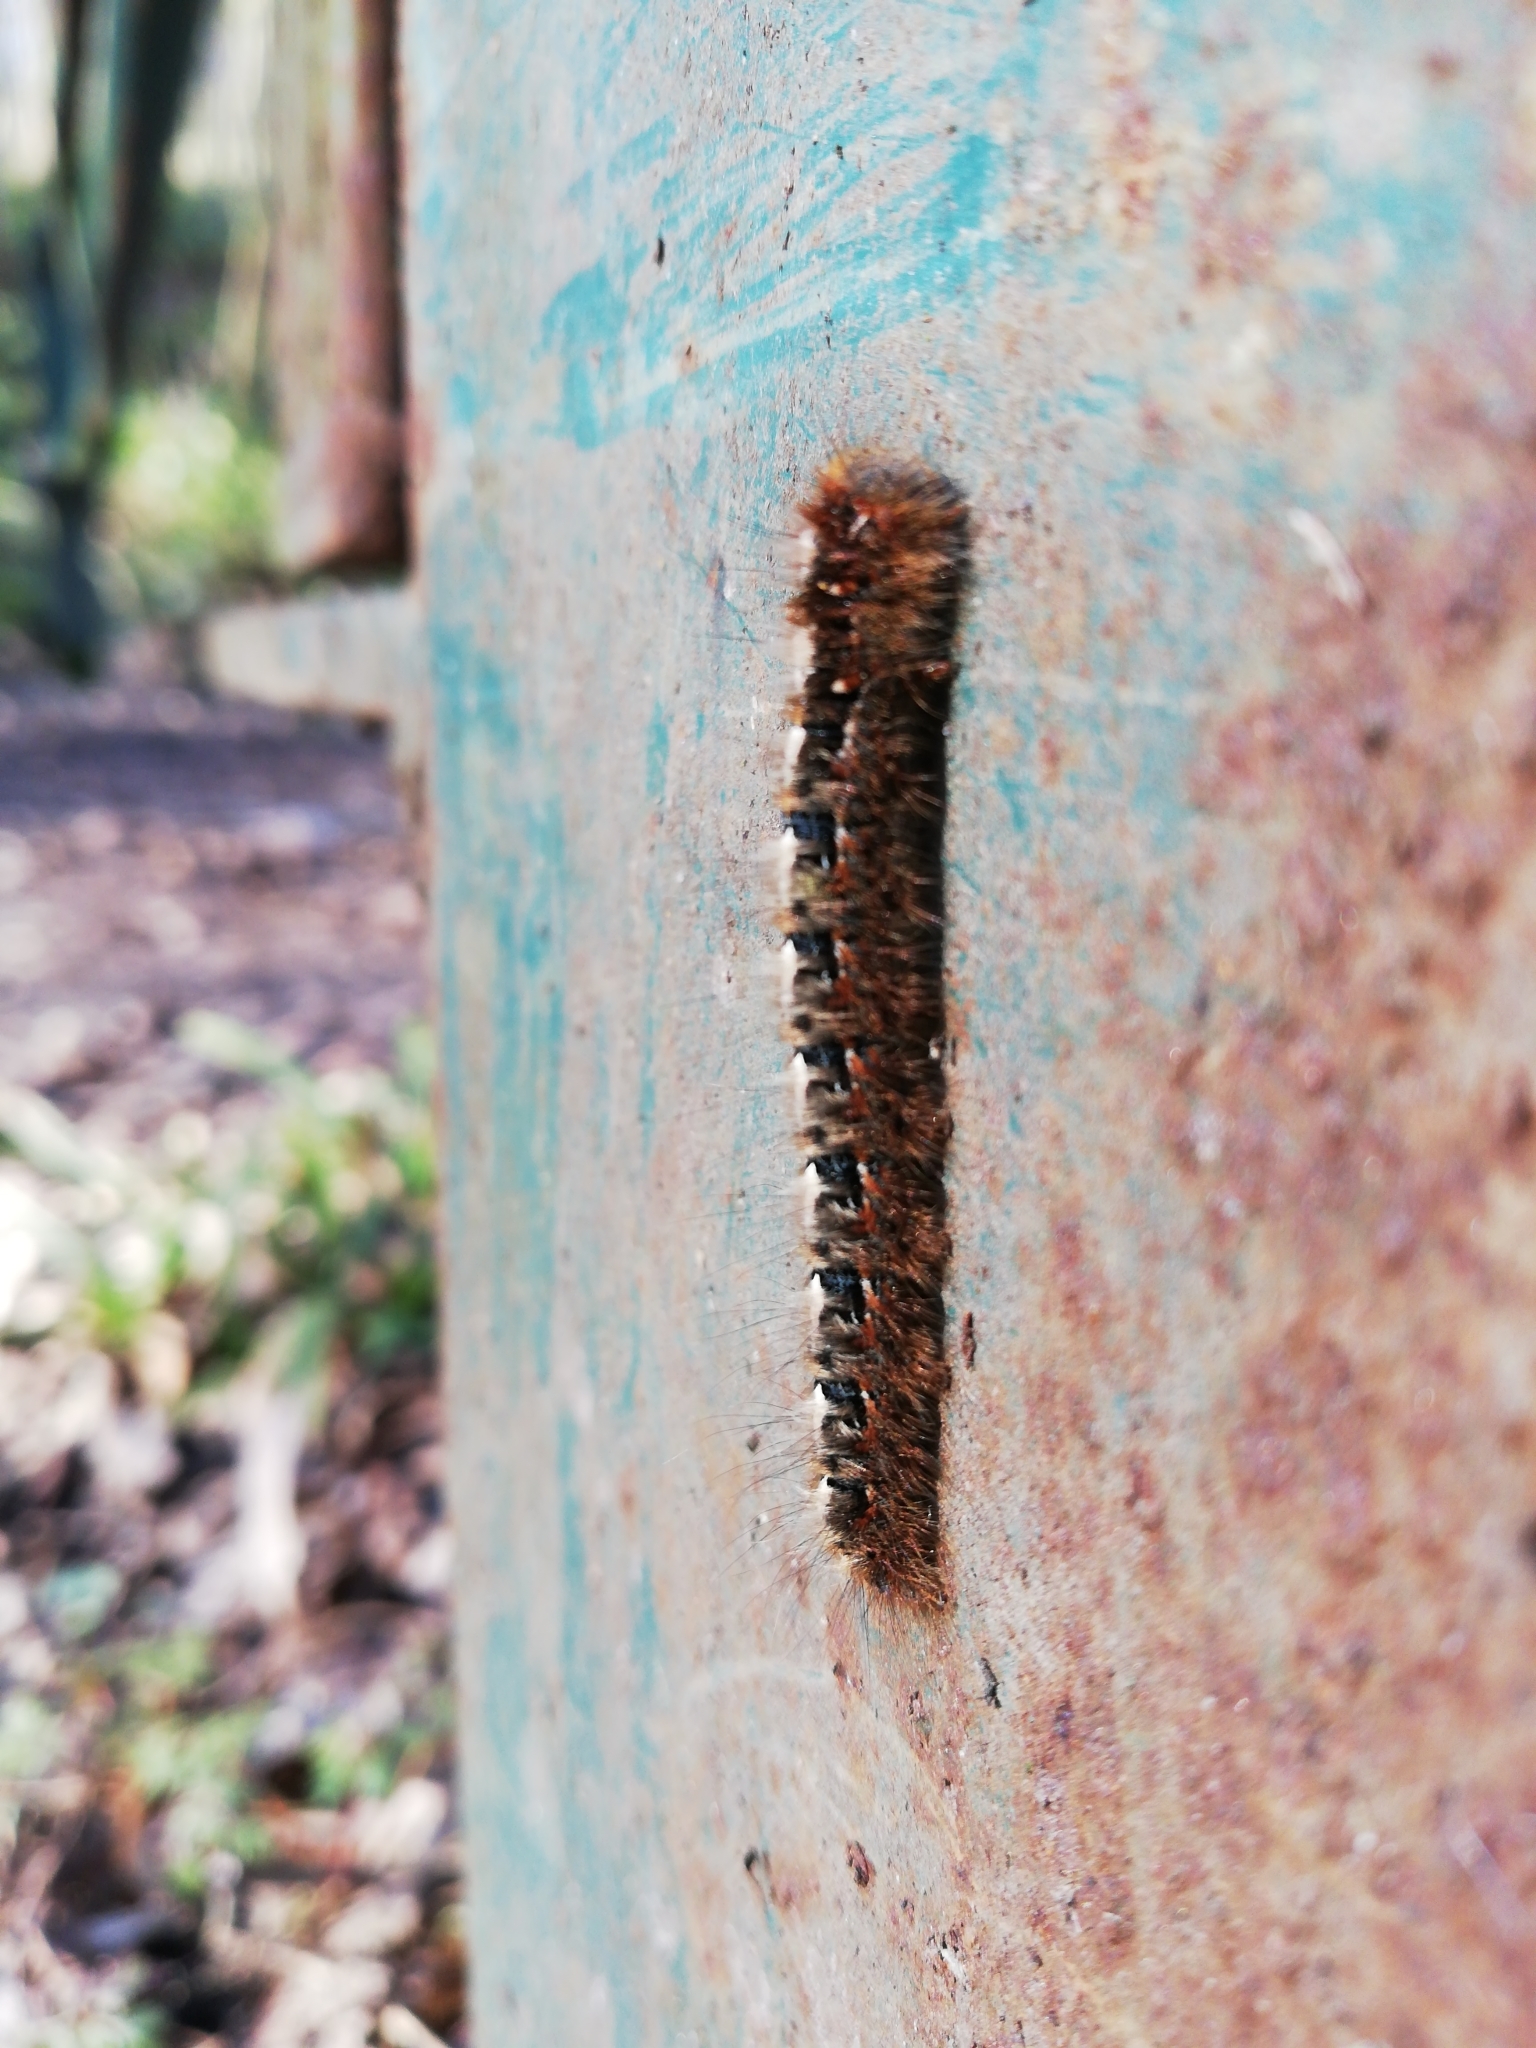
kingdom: Animalia
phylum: Arthropoda
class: Insecta
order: Lepidoptera
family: Lasiocampidae
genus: Lasiocampa
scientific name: Lasiocampa quercus
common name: Oak eggar
